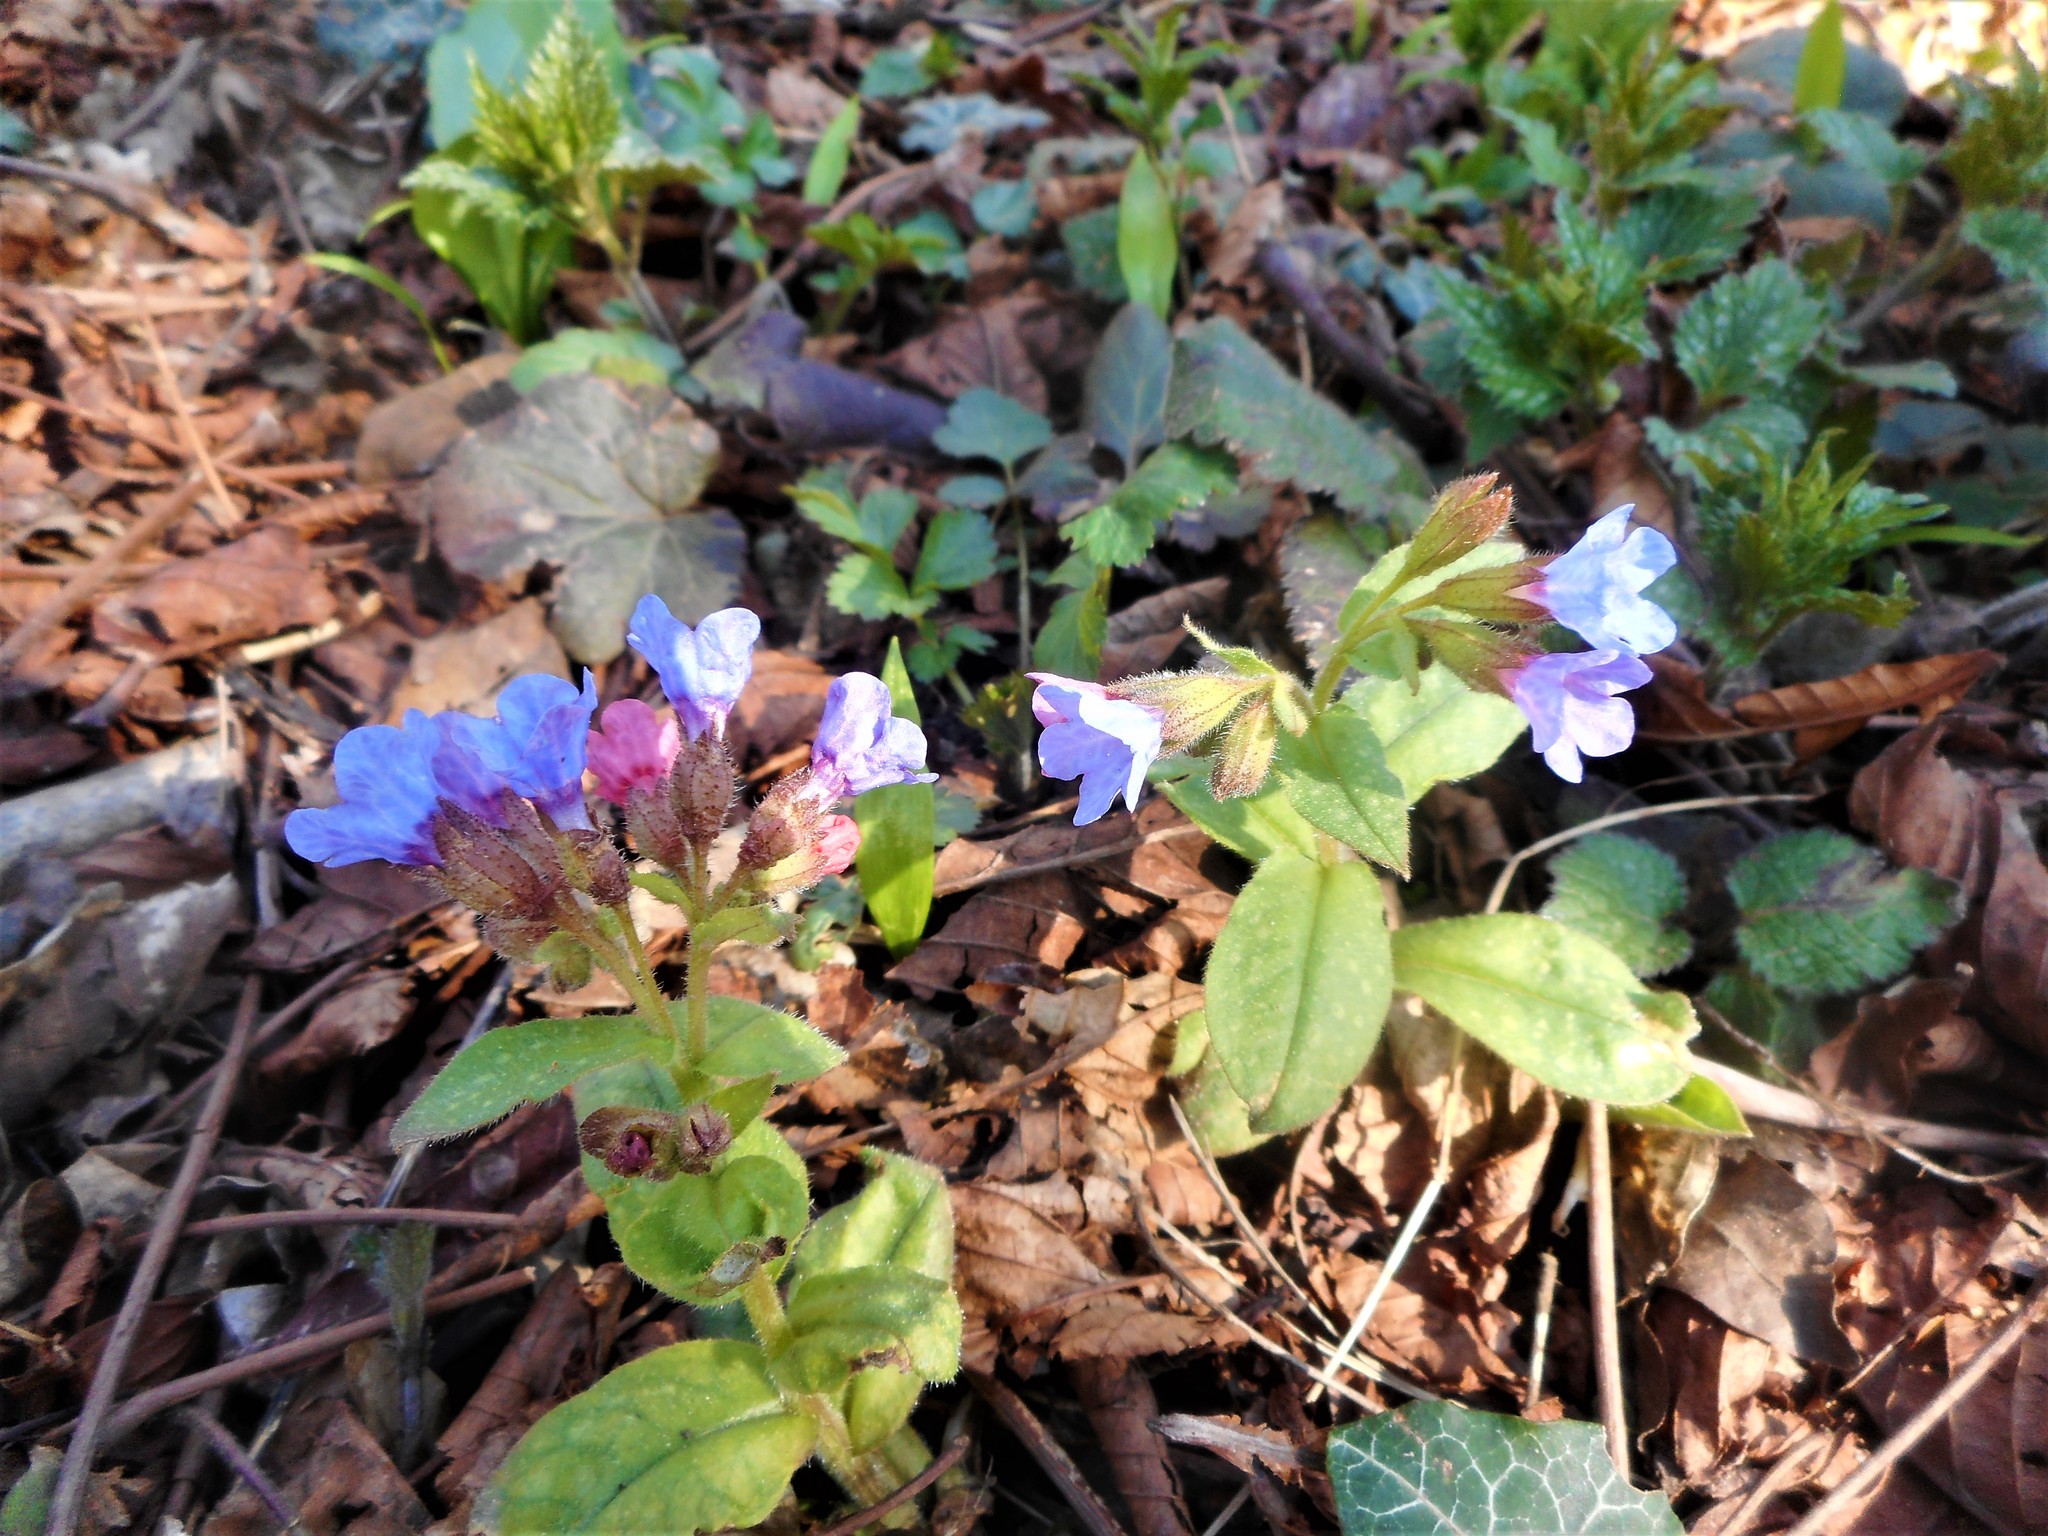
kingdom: Plantae
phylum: Tracheophyta
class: Magnoliopsida
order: Boraginales
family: Boraginaceae
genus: Pulmonaria
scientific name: Pulmonaria officinalis
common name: Lungwort
